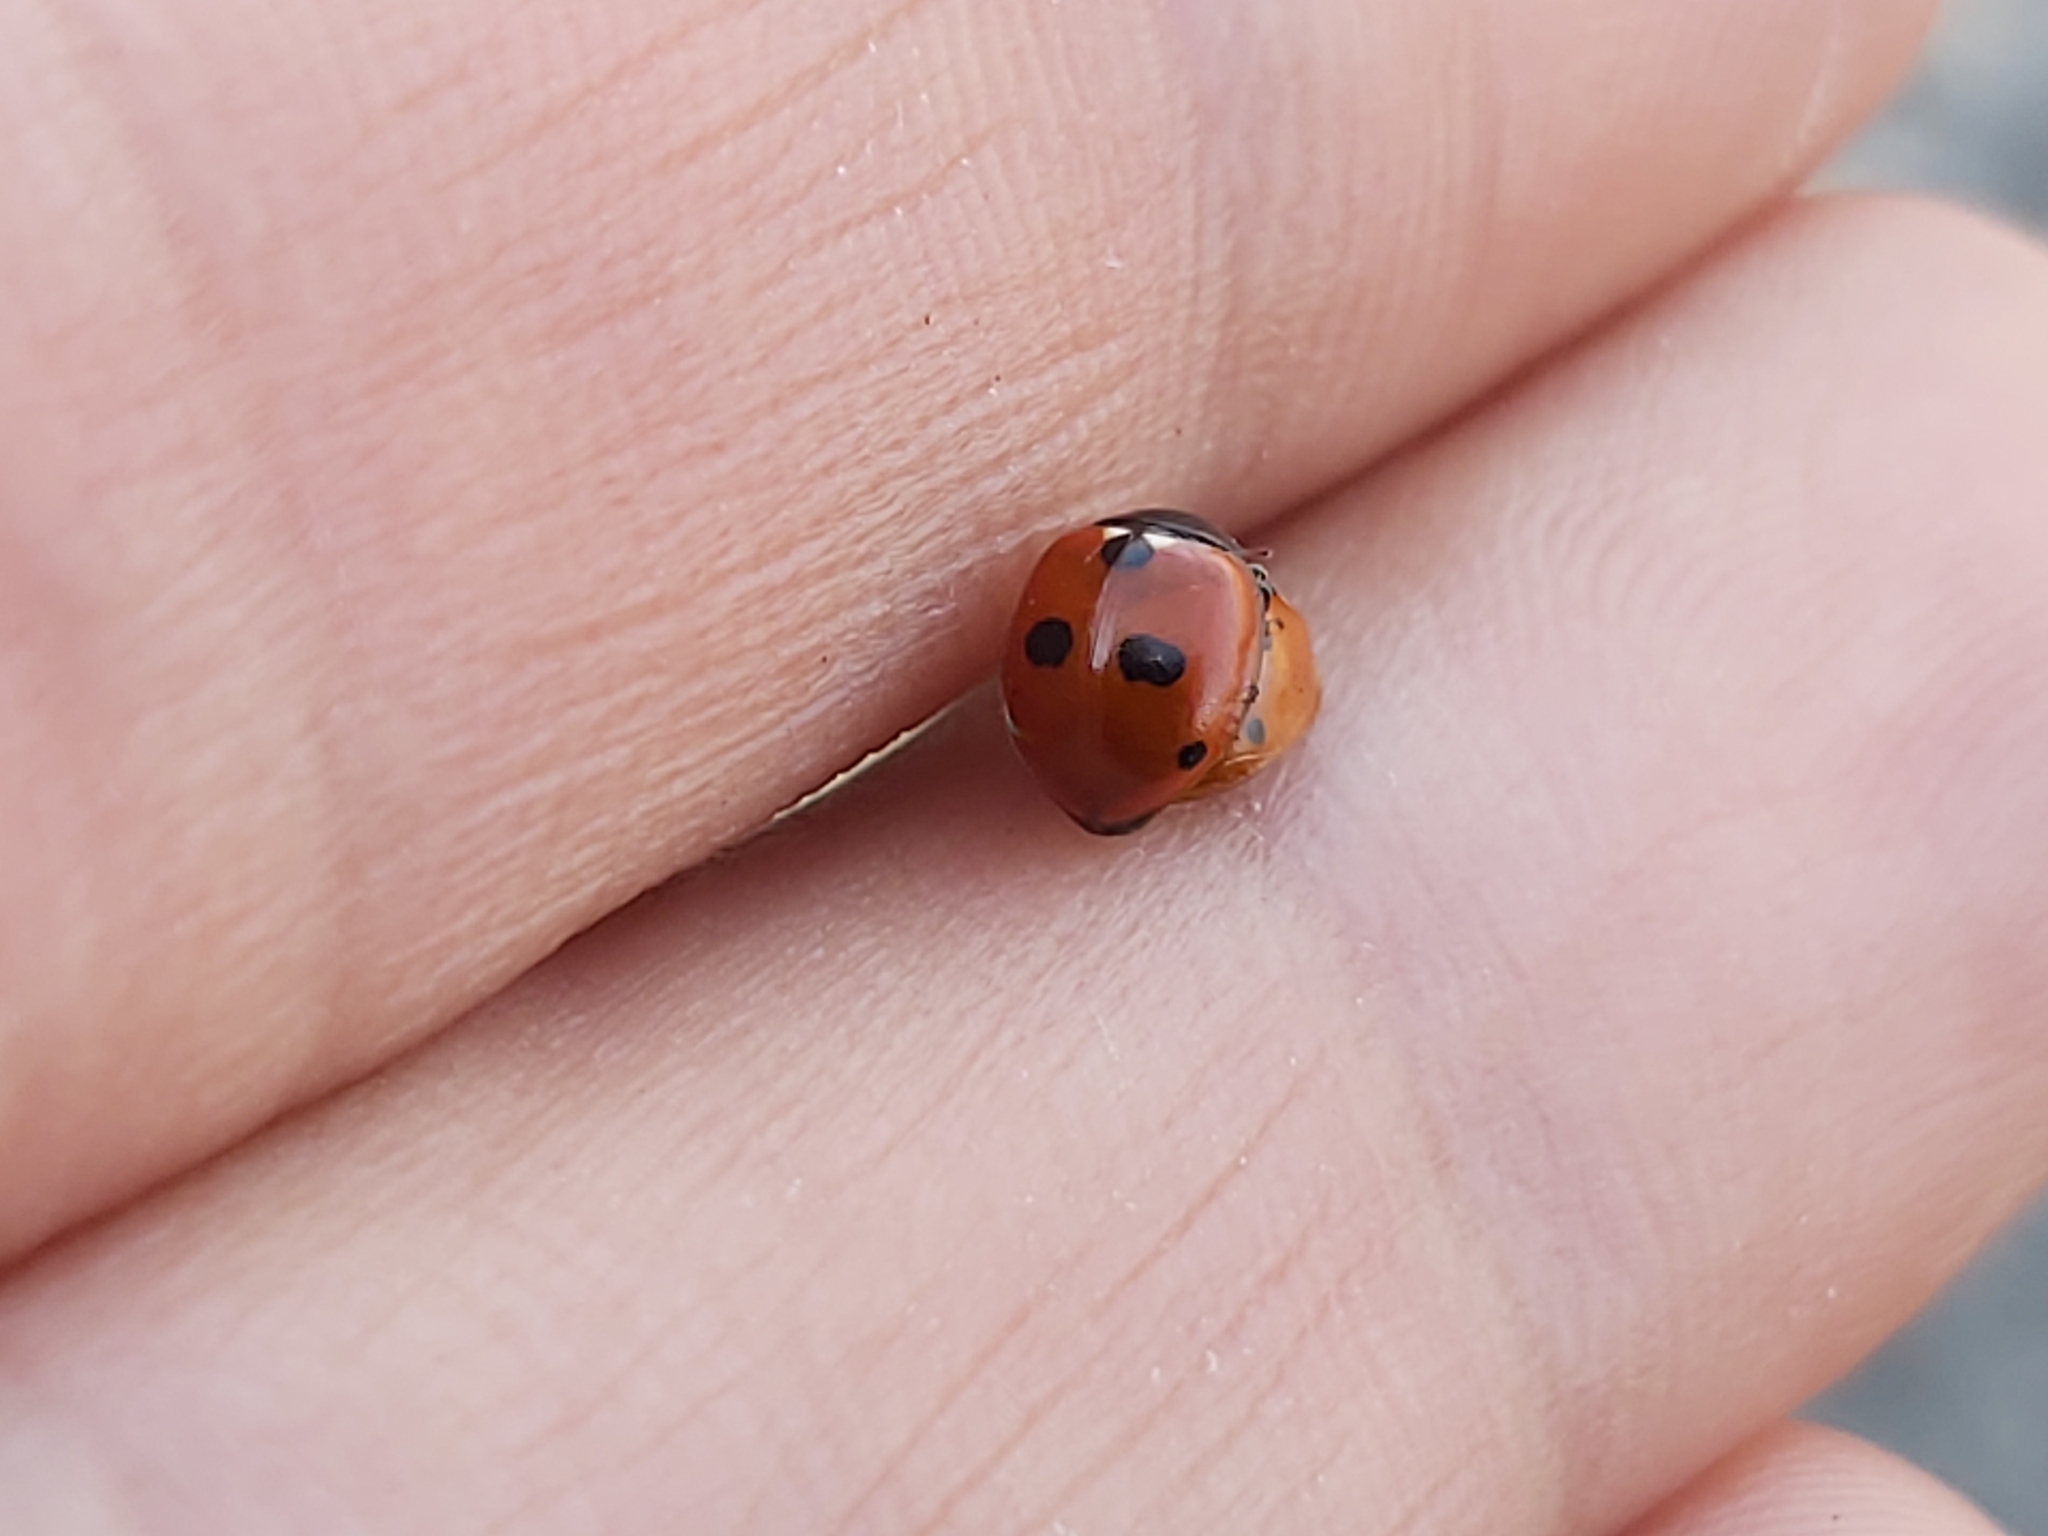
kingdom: Animalia
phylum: Arthropoda
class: Insecta
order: Coleoptera
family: Coccinellidae
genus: Coccinella
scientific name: Coccinella quinquepunctata
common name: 5-spot ladybird
